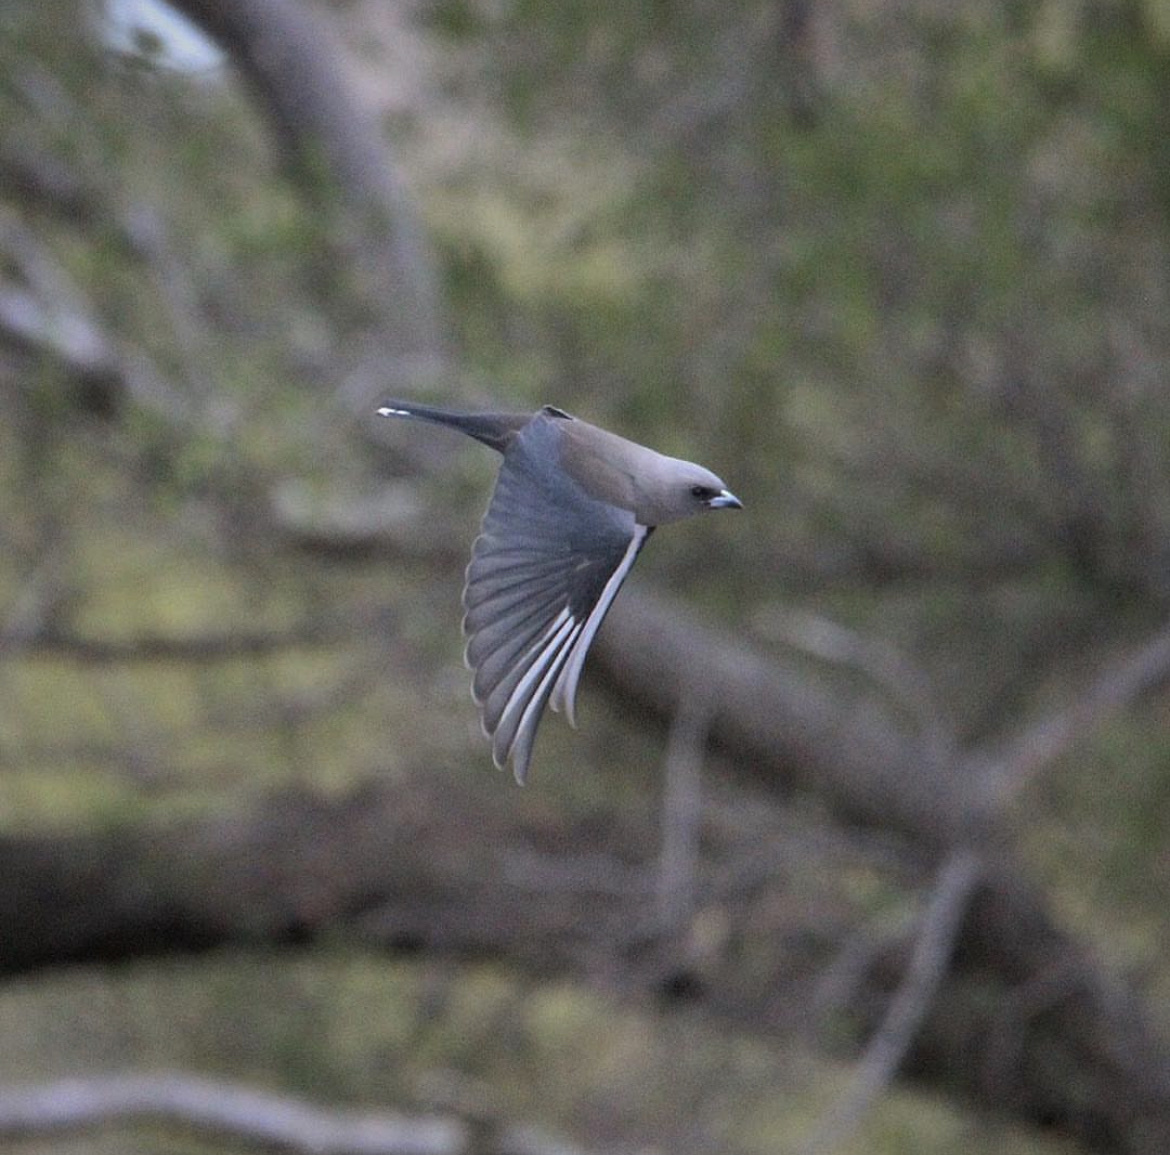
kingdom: Animalia
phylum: Chordata
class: Aves
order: Passeriformes
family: Artamidae
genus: Artamus
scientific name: Artamus cyanopterus
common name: Dusky woodswallow
